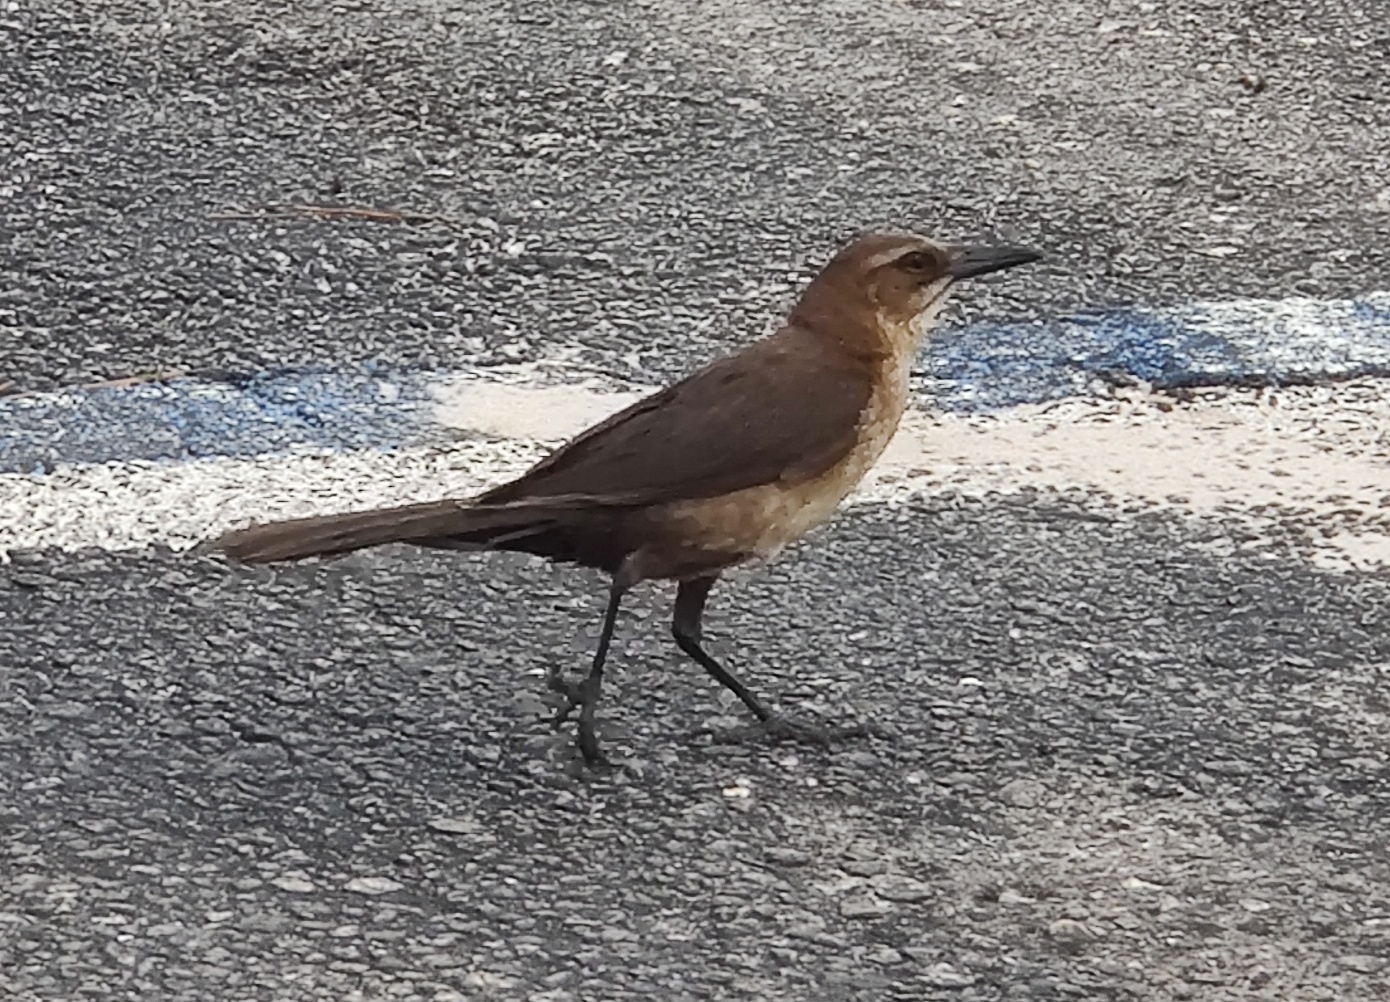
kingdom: Animalia
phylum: Chordata
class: Aves
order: Passeriformes
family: Icteridae
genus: Quiscalus
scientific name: Quiscalus major
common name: Boat-tailed grackle
